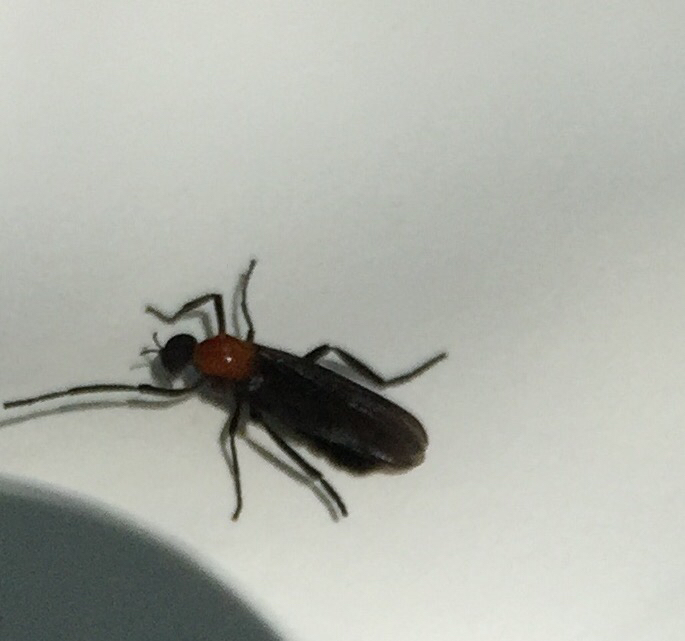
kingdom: Animalia
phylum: Arthropoda
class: Insecta
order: Diptera
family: Bibionidae
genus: Plecia
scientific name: Plecia nearctica
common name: March fly
